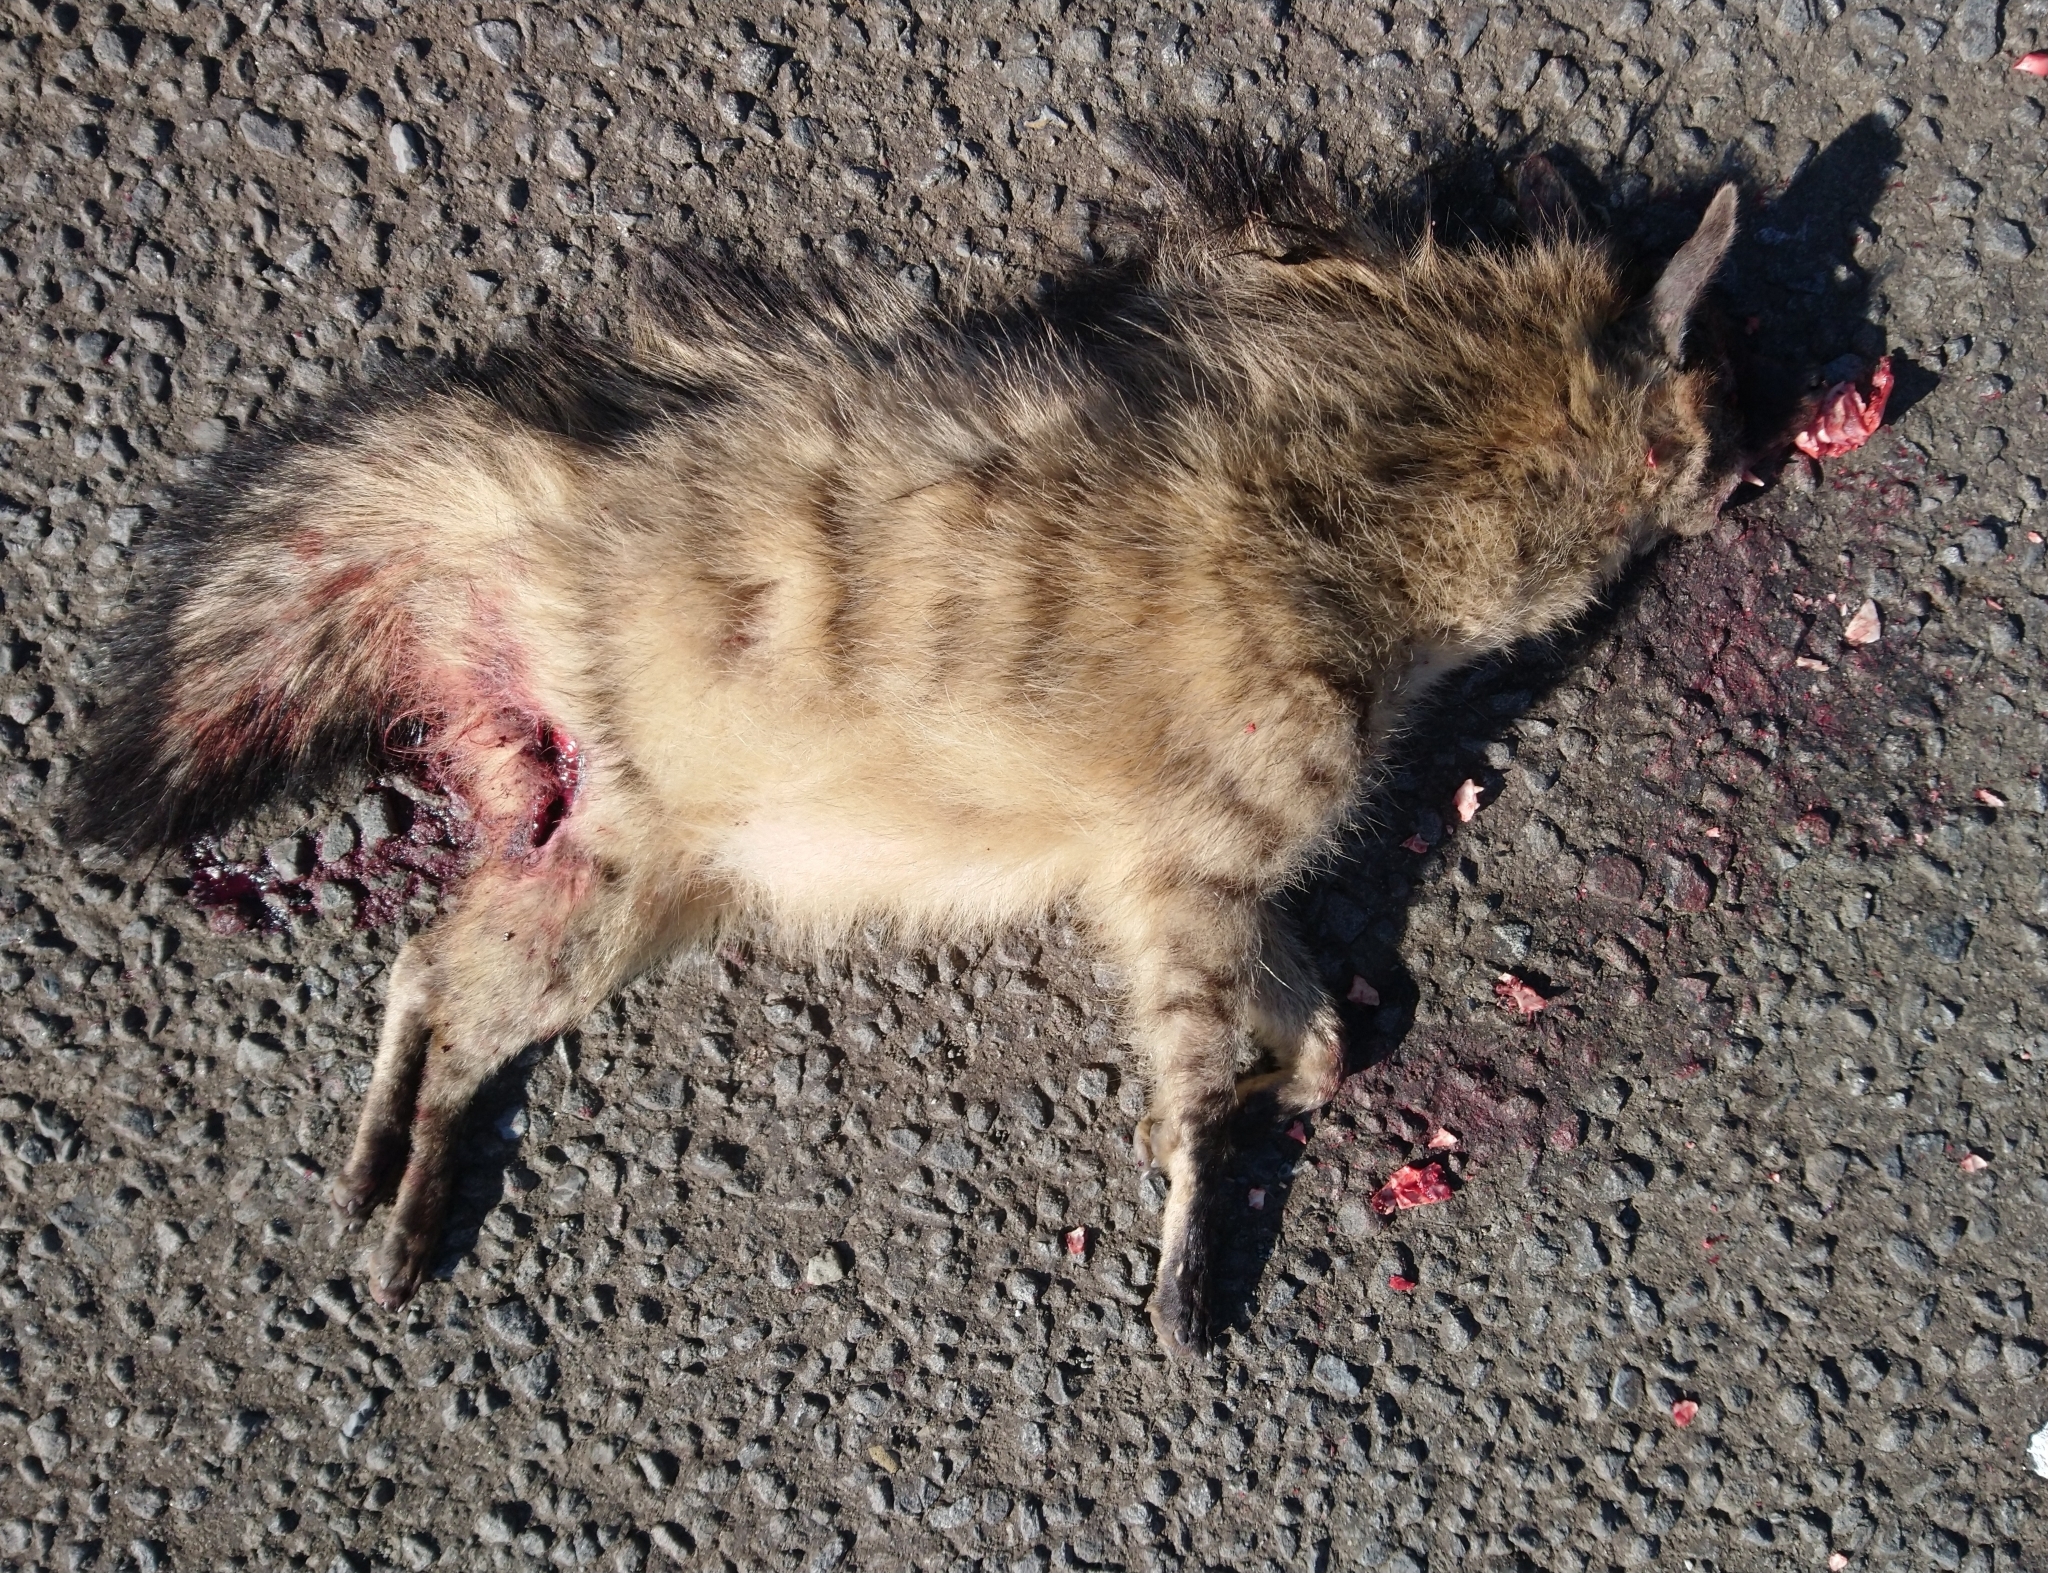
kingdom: Animalia
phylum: Chordata
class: Mammalia
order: Carnivora
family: Hyaenidae
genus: Proteles
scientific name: Proteles cristata
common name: Aardwolf
